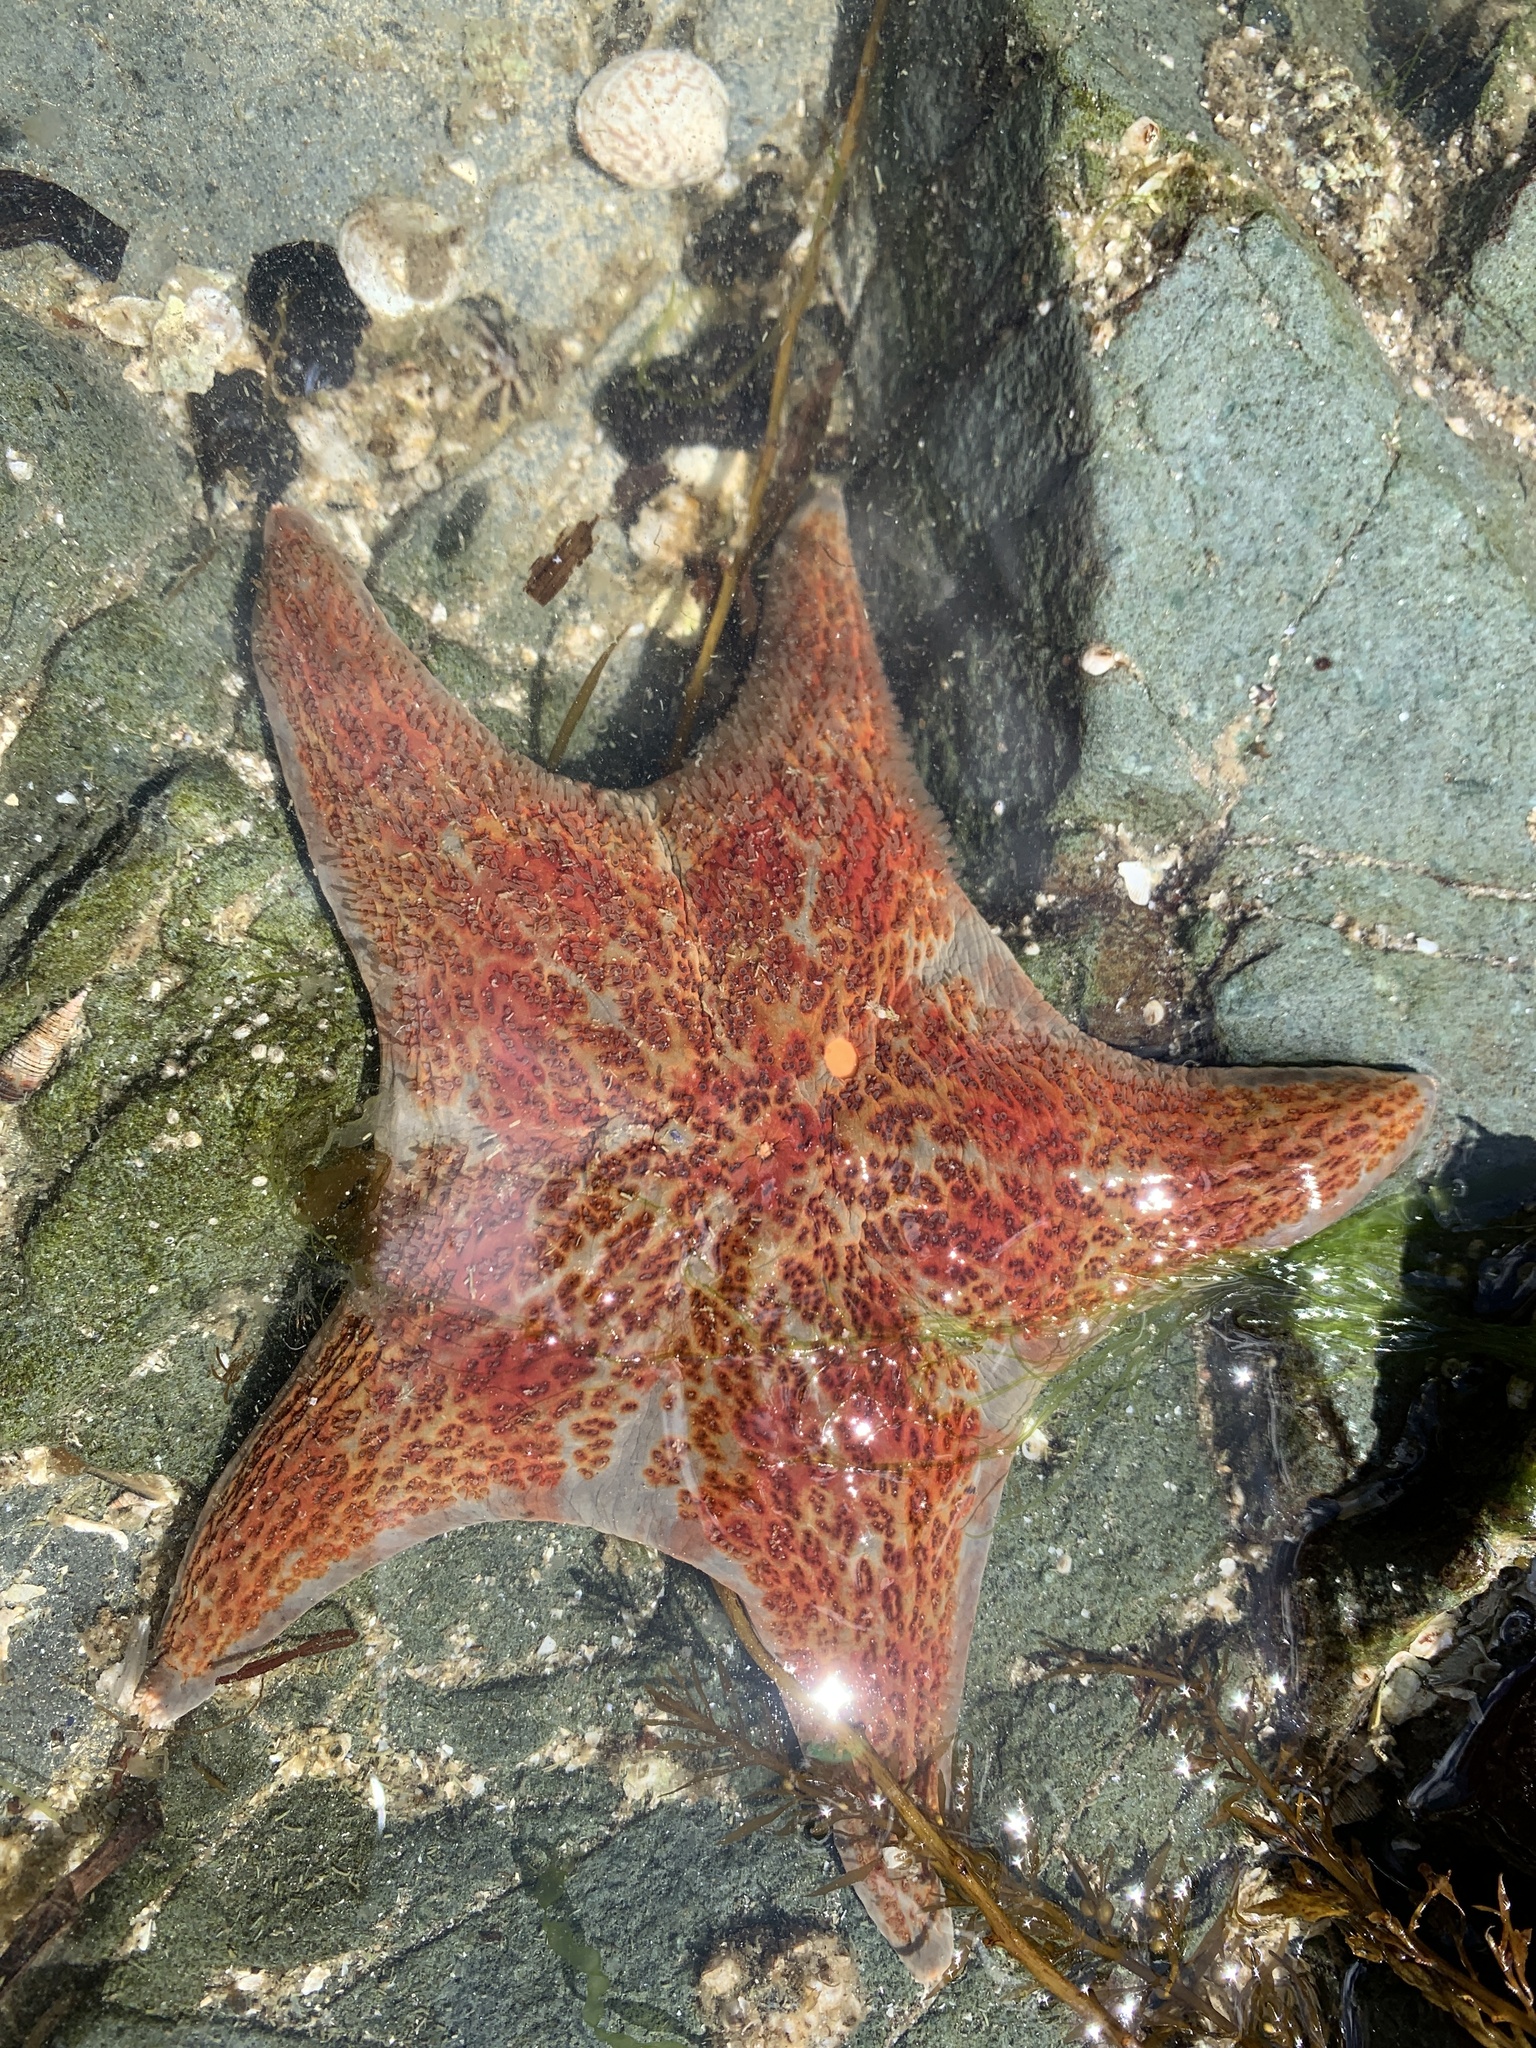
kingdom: Animalia
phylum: Echinodermata
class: Asteroidea
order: Valvatida
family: Asteropseidae
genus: Dermasterias
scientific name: Dermasterias imbricata
